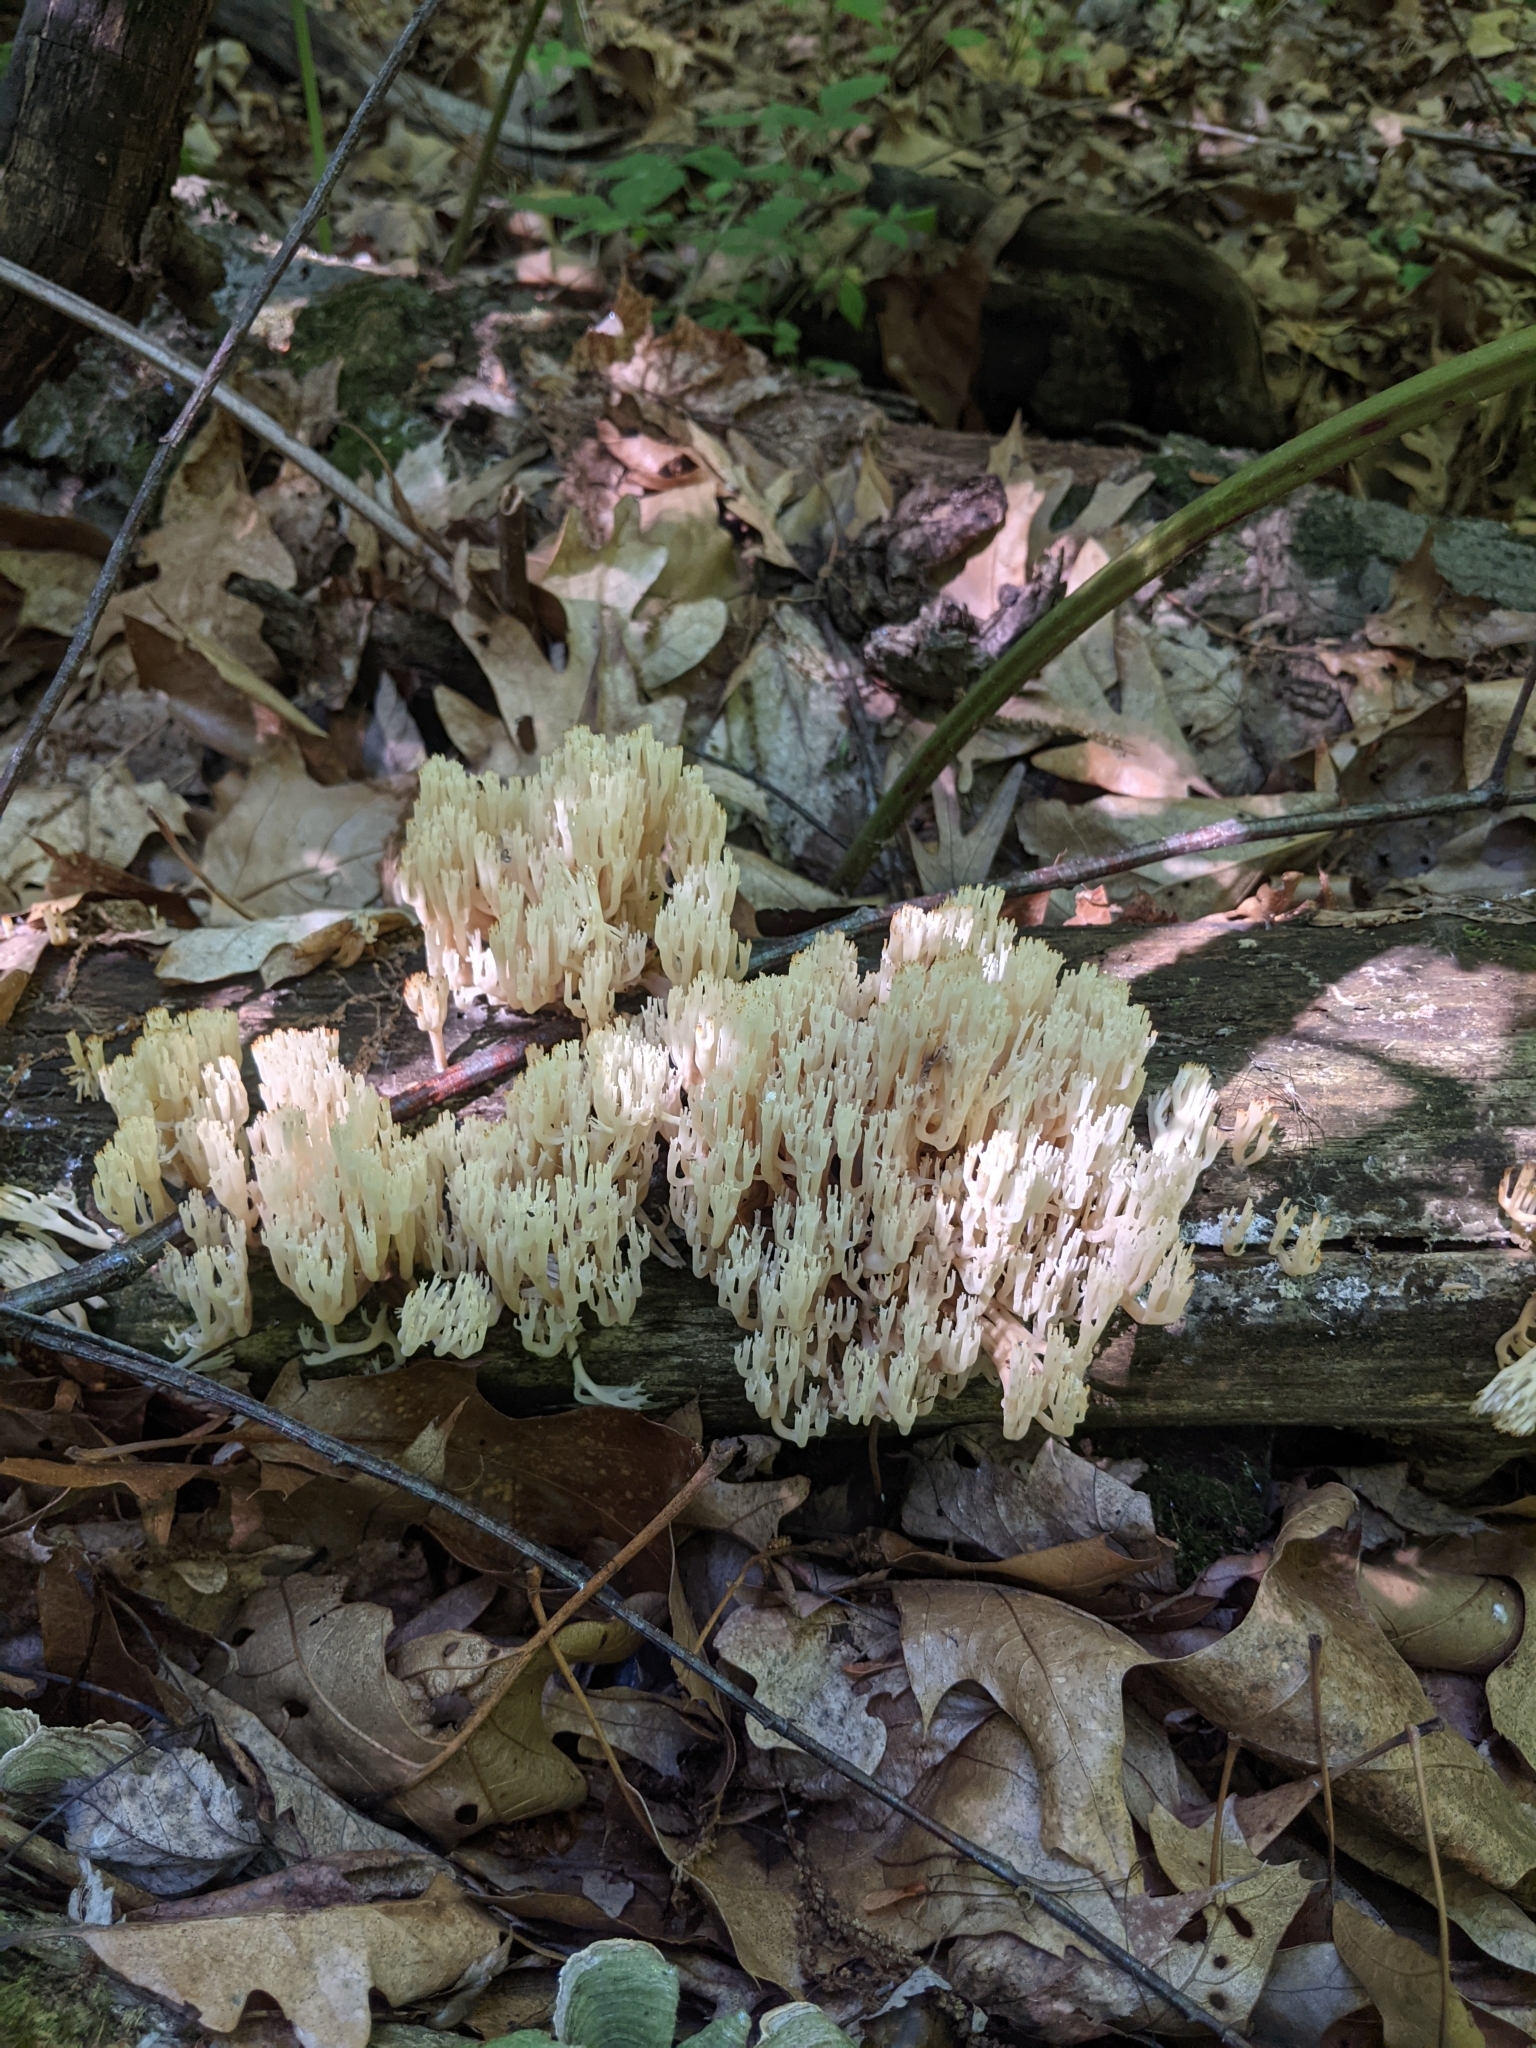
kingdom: Fungi
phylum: Basidiomycota
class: Agaricomycetes
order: Russulales
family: Auriscalpiaceae
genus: Artomyces
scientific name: Artomyces pyxidatus
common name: Crown-tipped coral fungus
